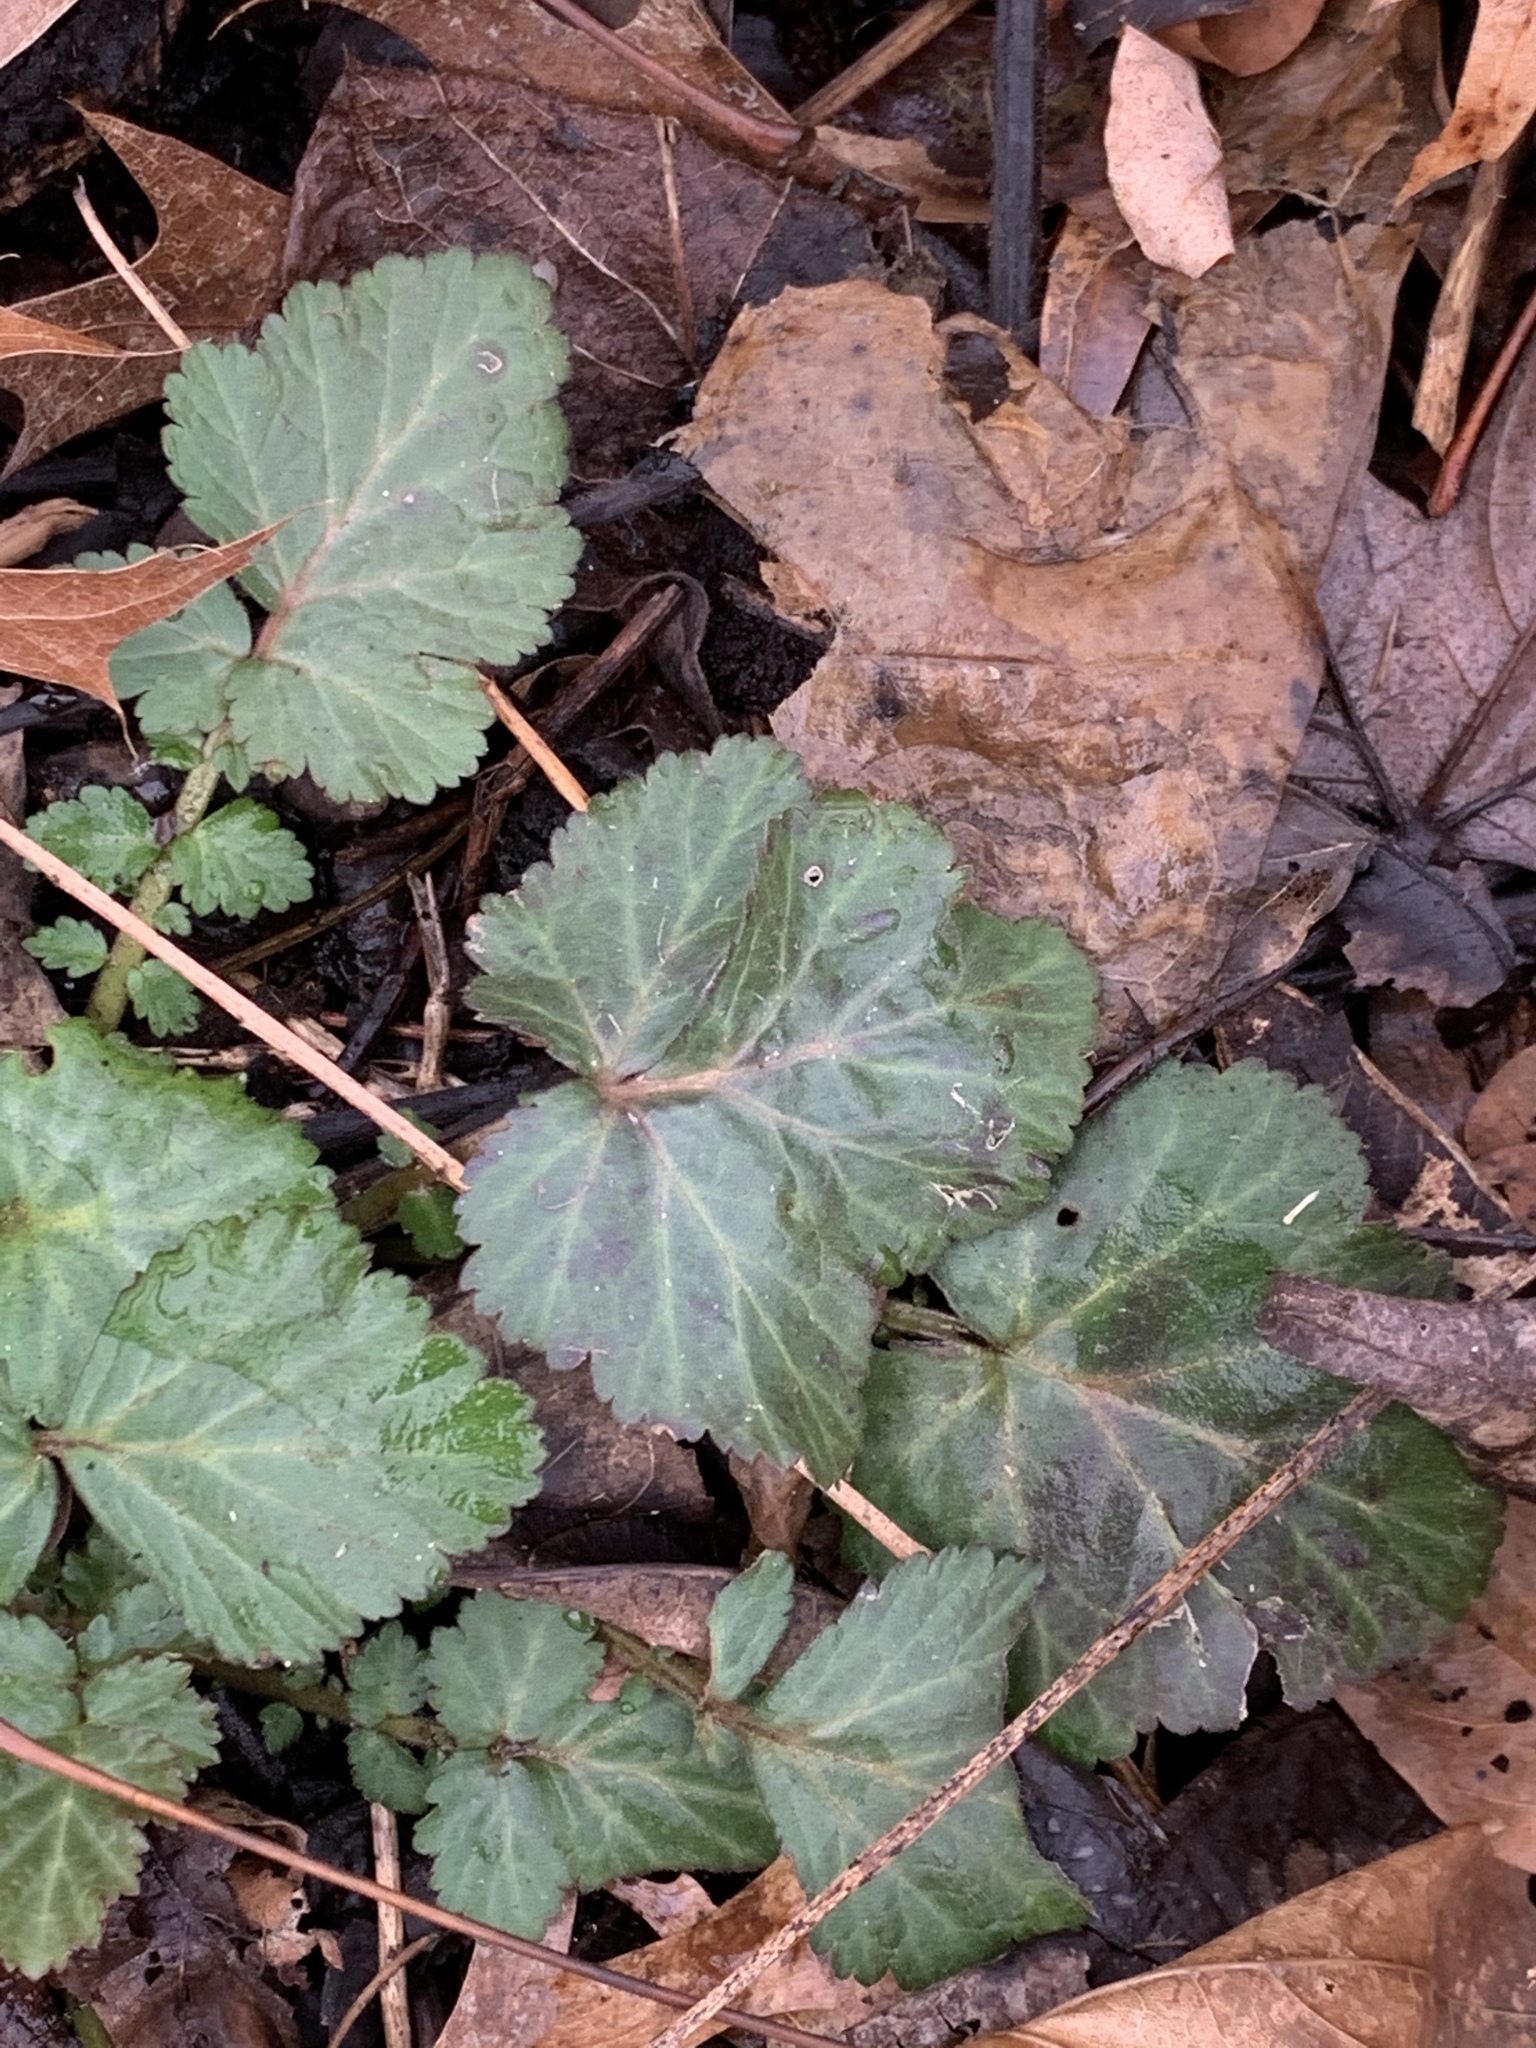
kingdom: Plantae
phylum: Tracheophyta
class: Magnoliopsida
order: Rosales
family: Rosaceae
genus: Geum
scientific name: Geum canadense
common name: White avens
